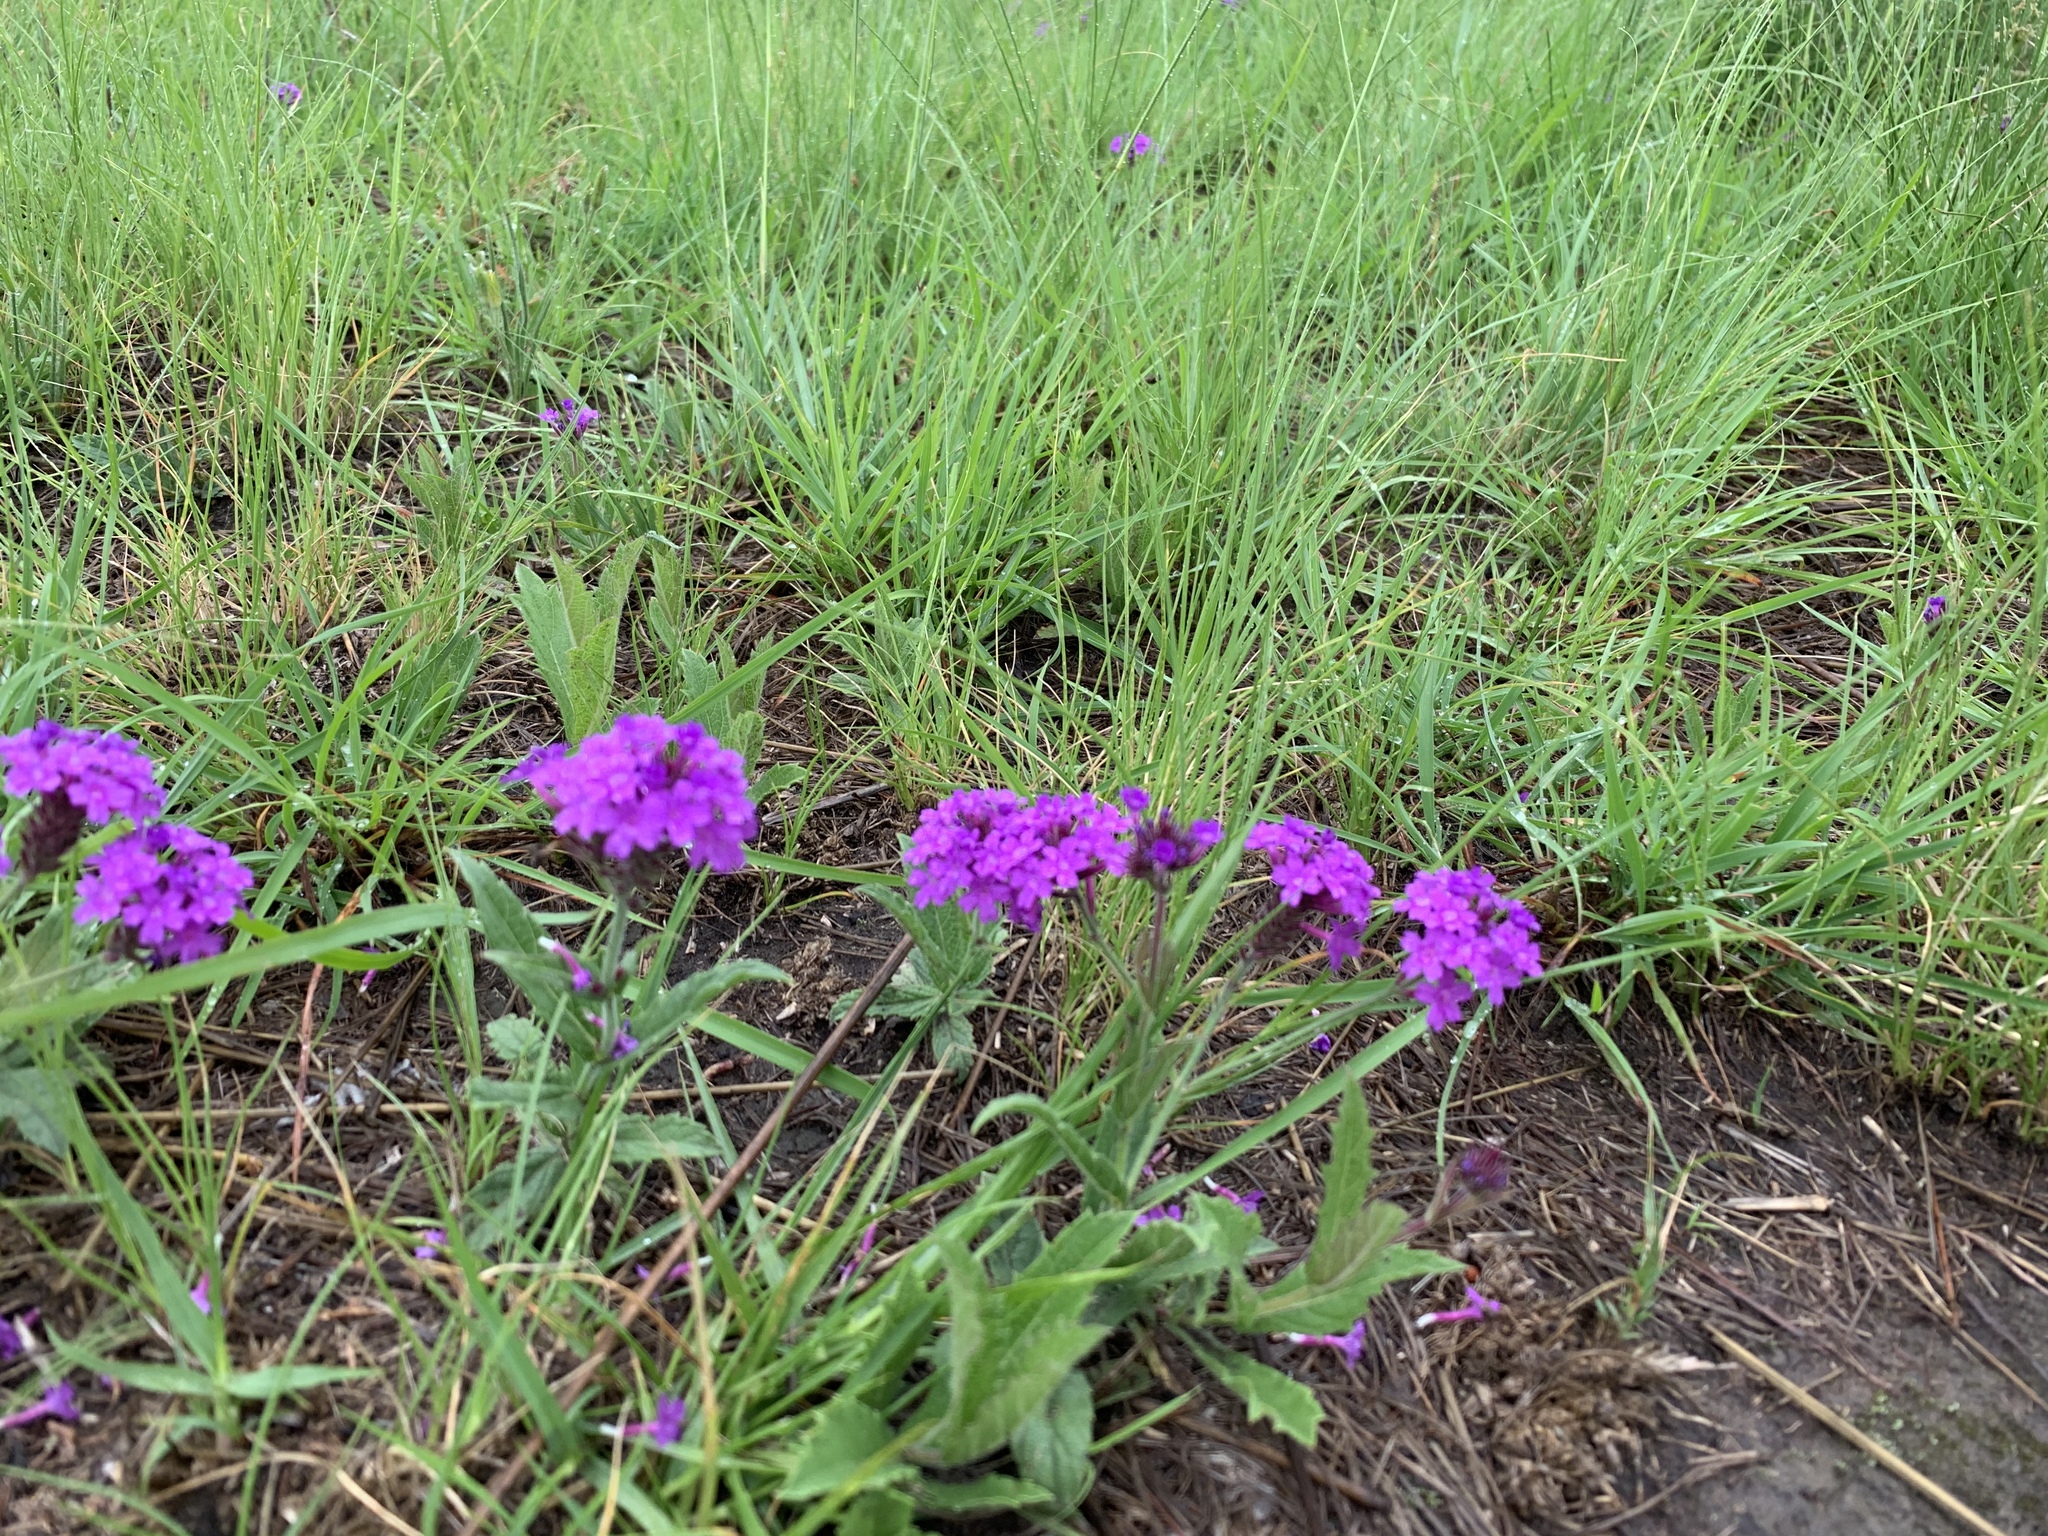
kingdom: Plantae
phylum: Tracheophyta
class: Magnoliopsida
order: Lamiales
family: Verbenaceae
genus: Verbena
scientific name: Verbena rigida
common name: Slender vervain
